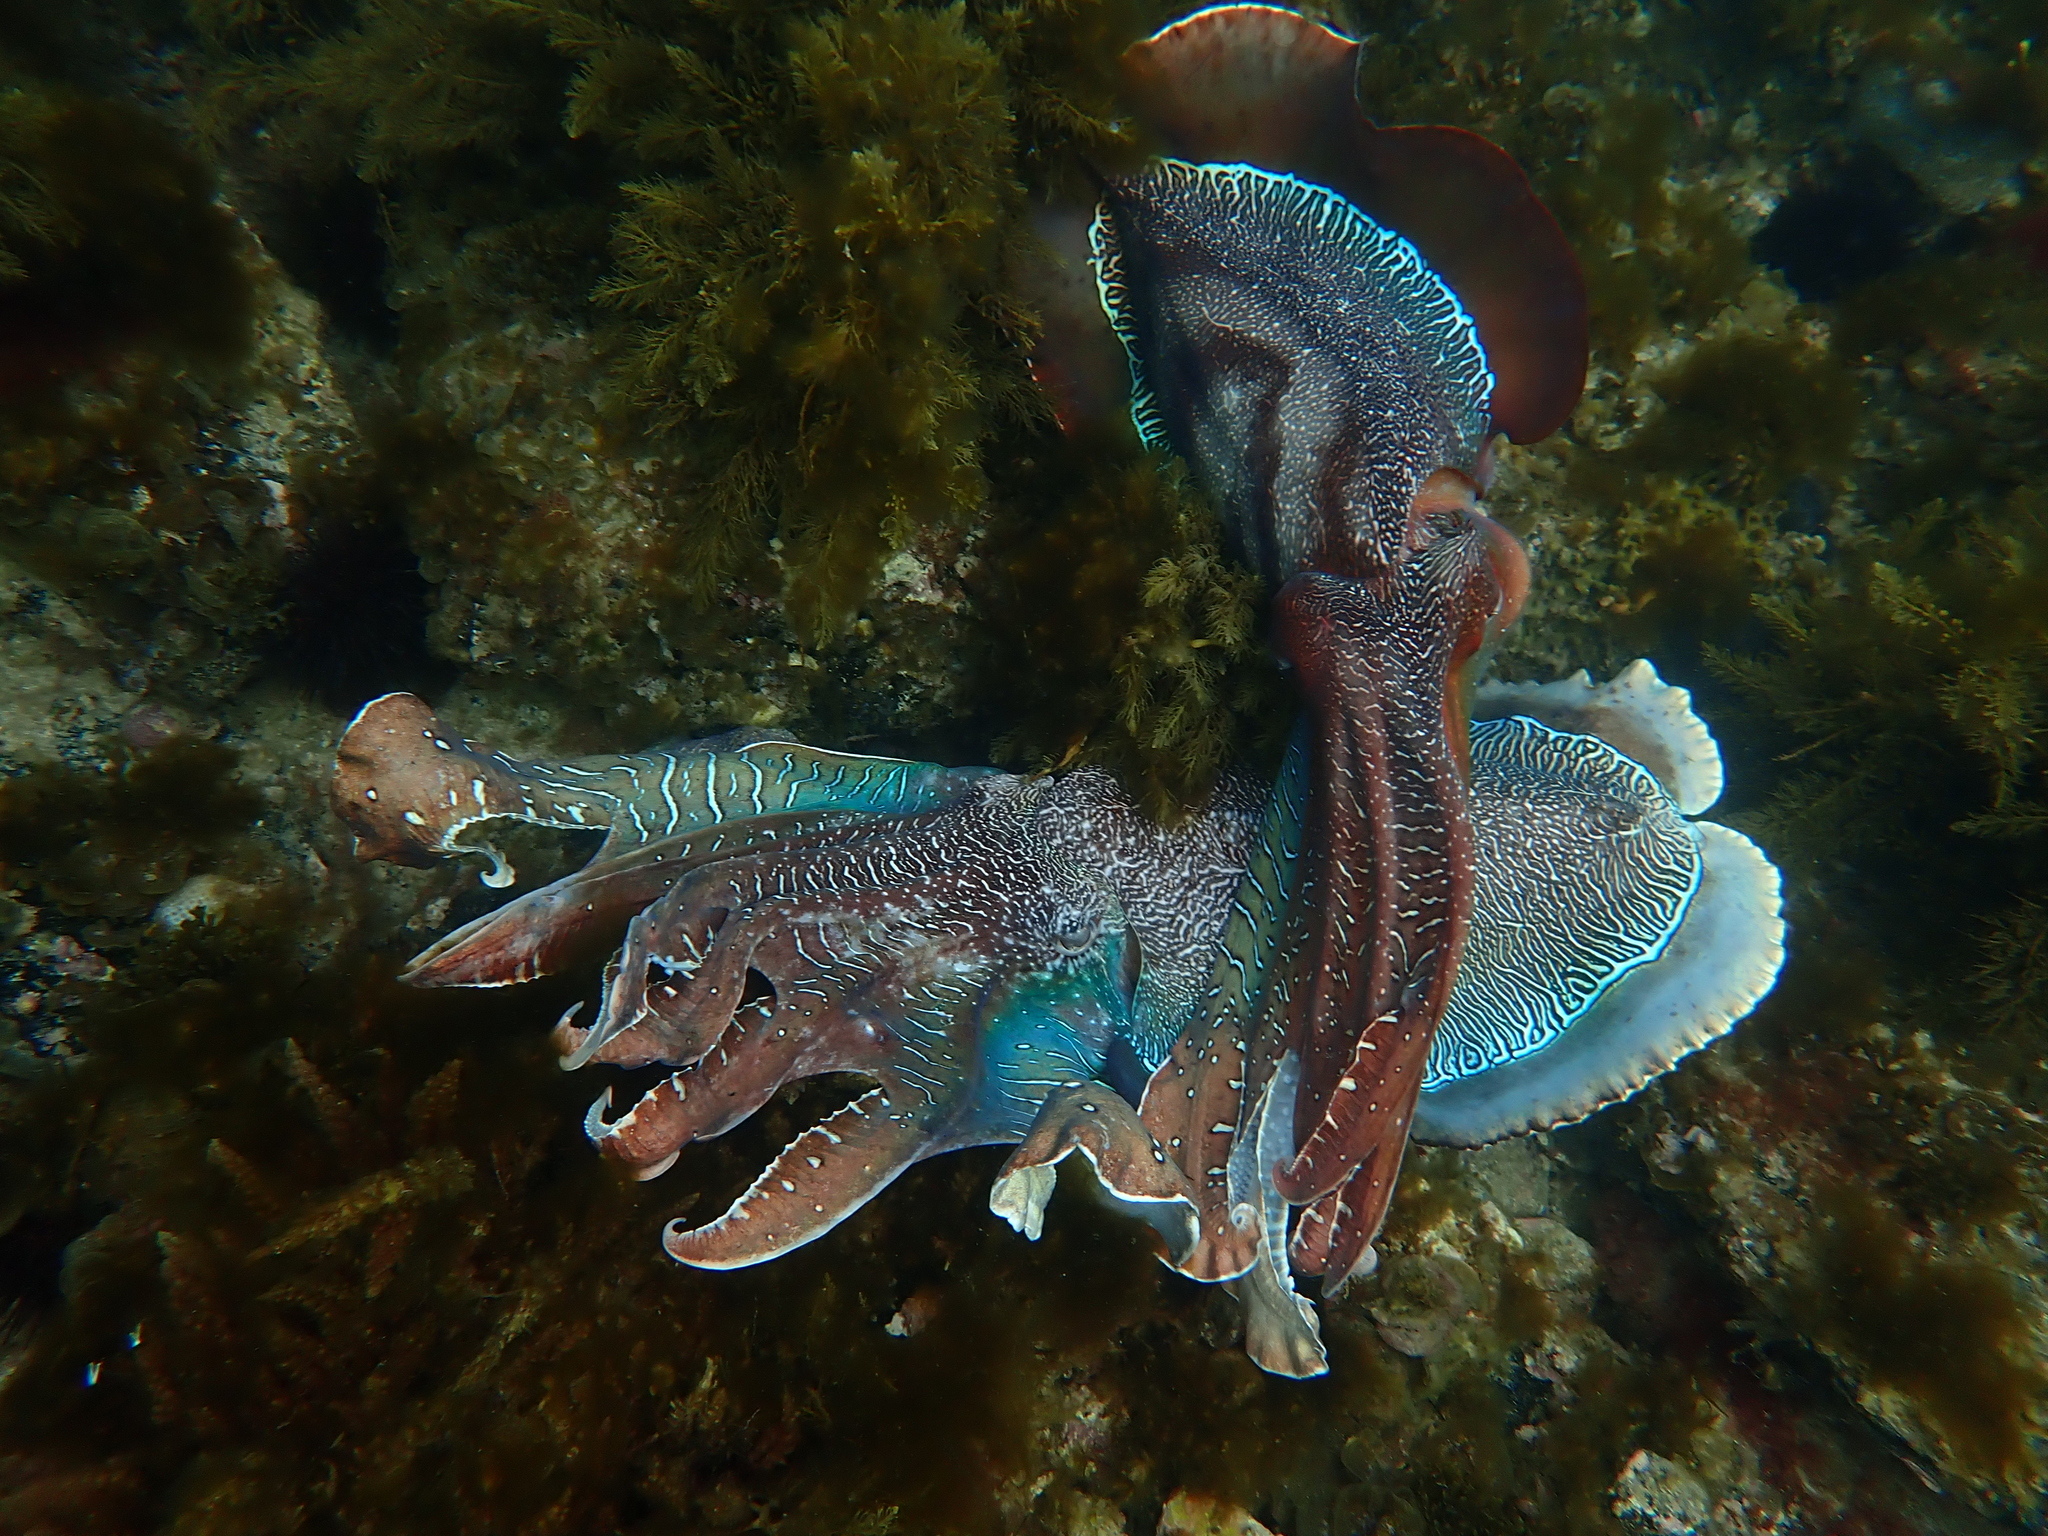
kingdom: Animalia
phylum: Mollusca
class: Cephalopoda
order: Sepiida
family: Sepiidae
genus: Ascarosepion
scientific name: Ascarosepion apama
